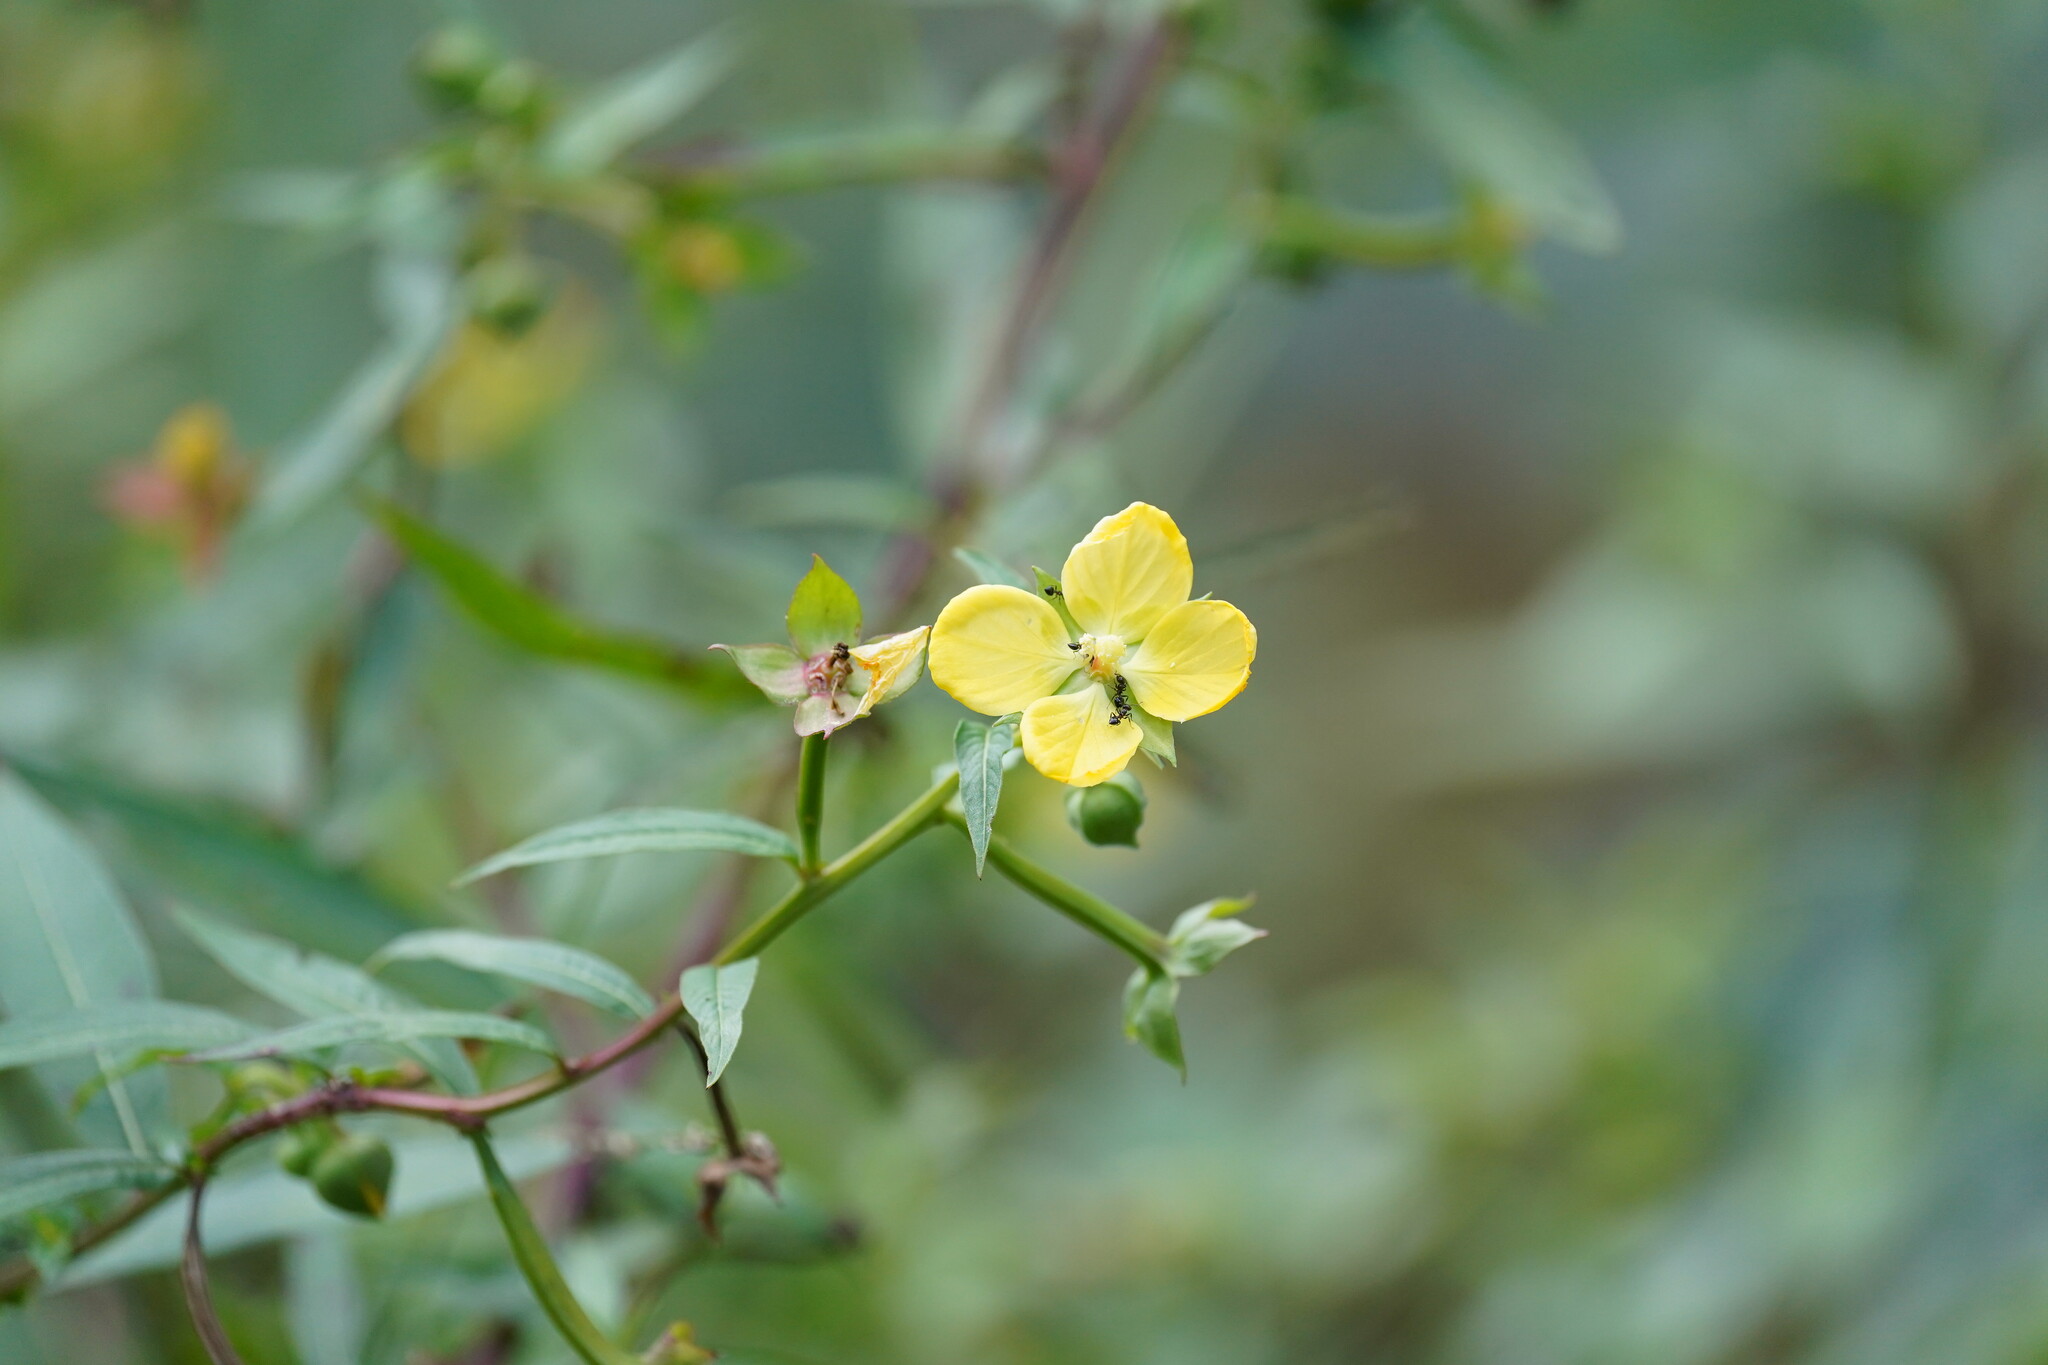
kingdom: Plantae
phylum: Tracheophyta
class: Magnoliopsida
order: Myrtales
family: Onagraceae
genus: Ludwigia
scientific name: Ludwigia octovalvis
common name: Water-primrose
